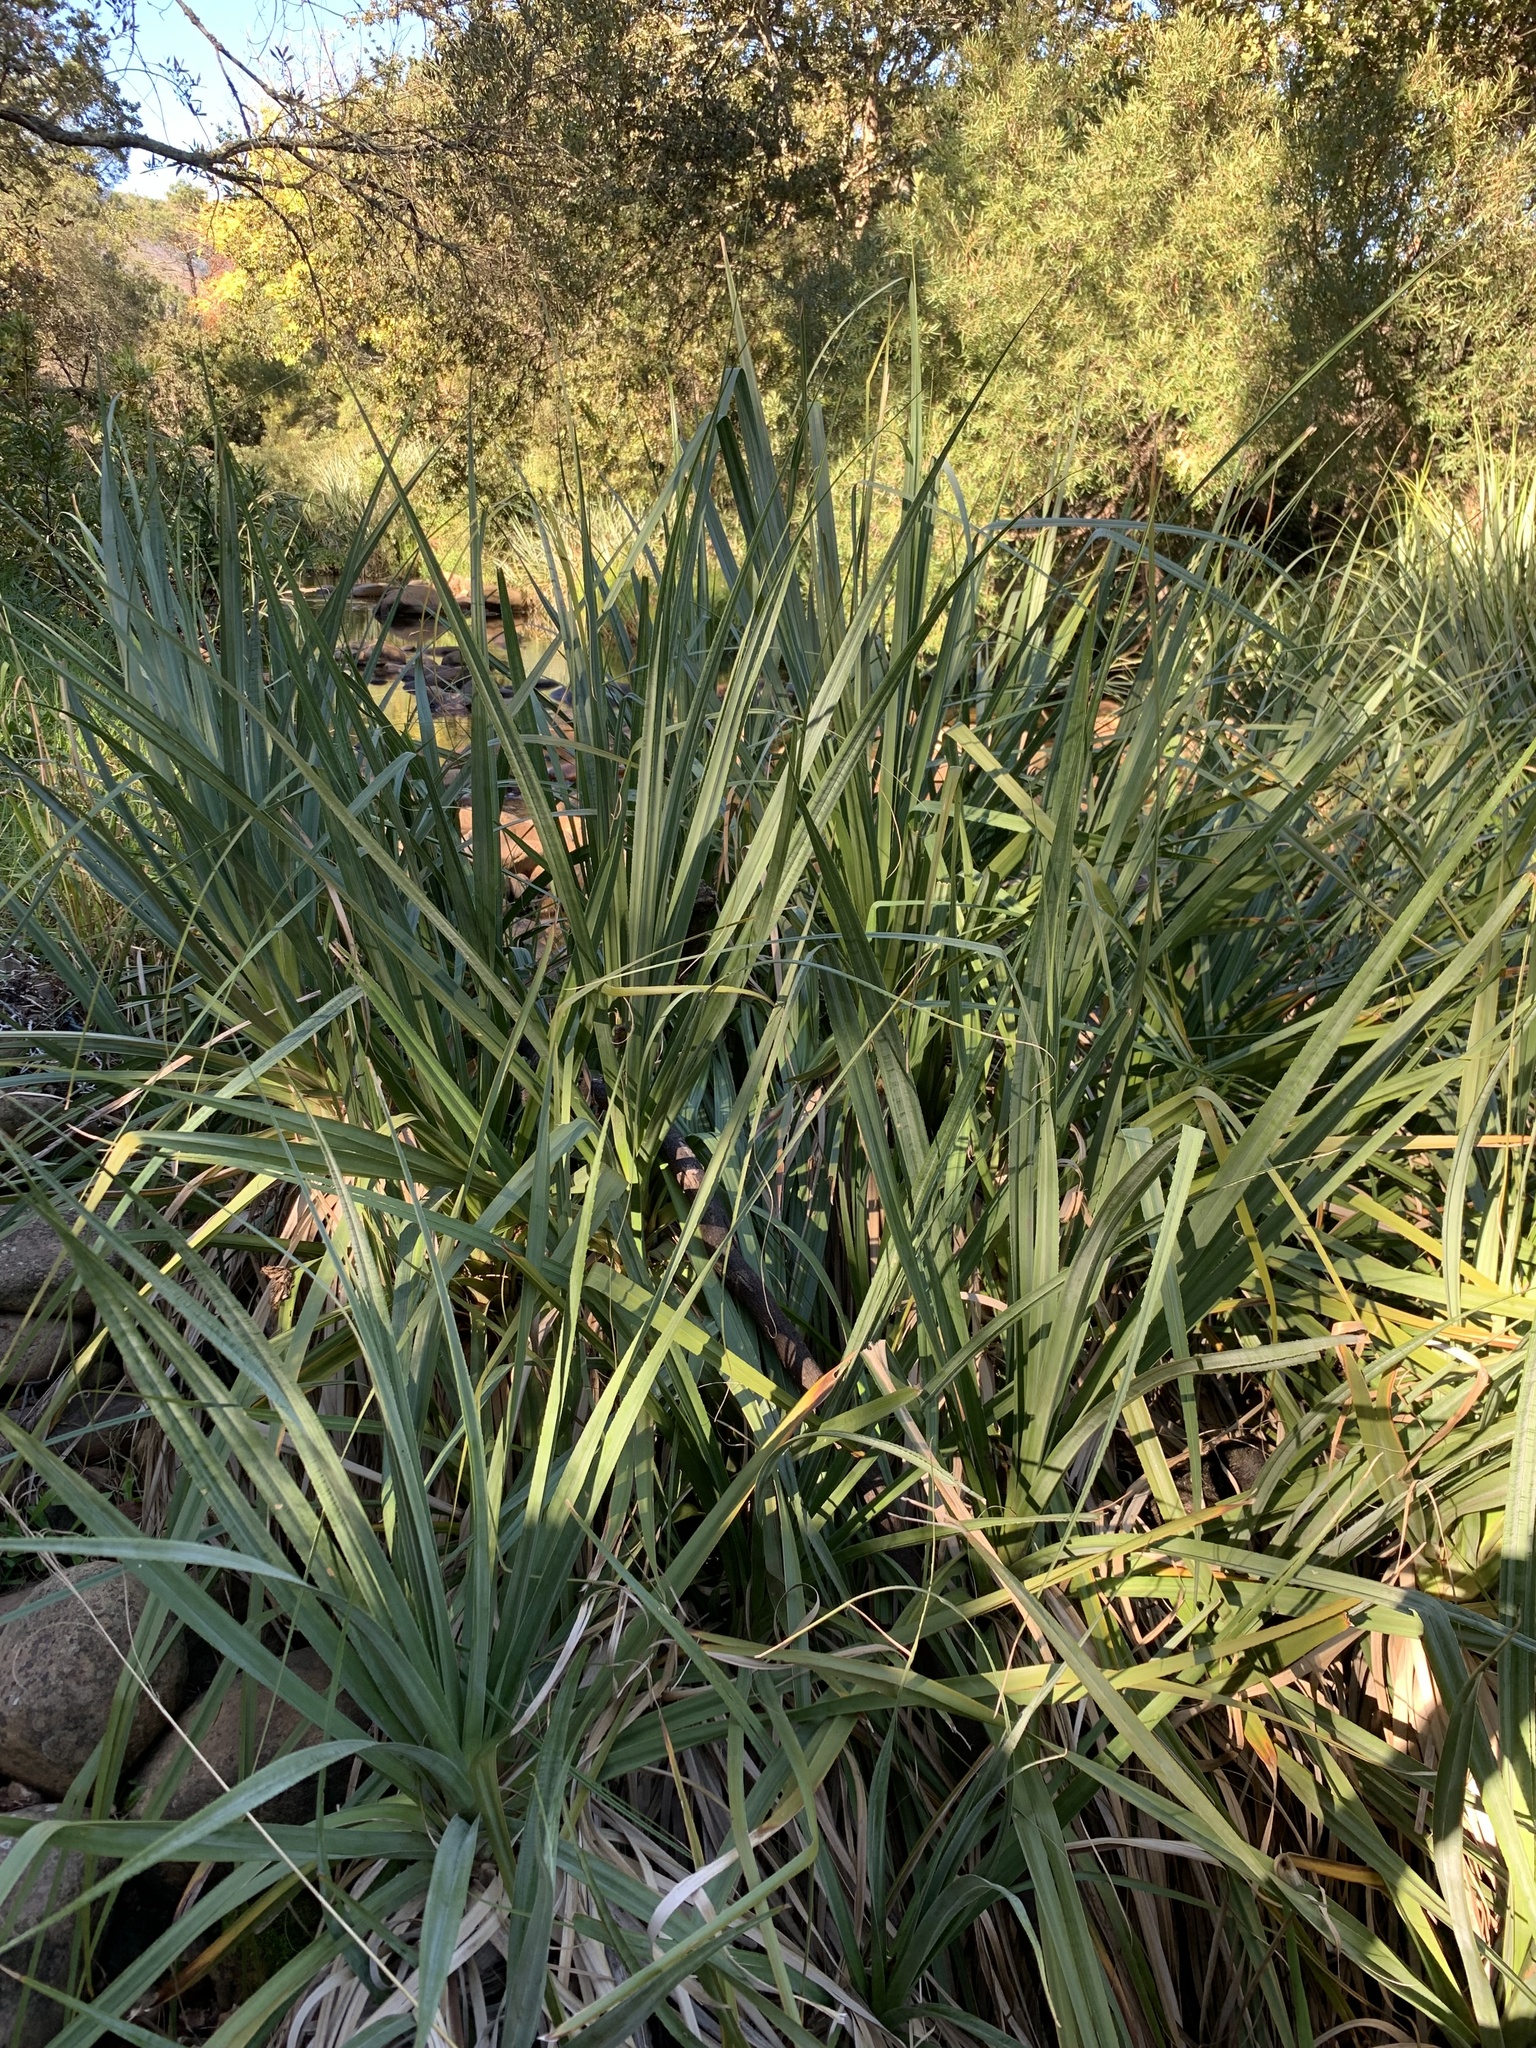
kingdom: Plantae
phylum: Tracheophyta
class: Liliopsida
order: Poales
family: Thurniaceae
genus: Prionium
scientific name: Prionium serratum
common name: Palmiet
